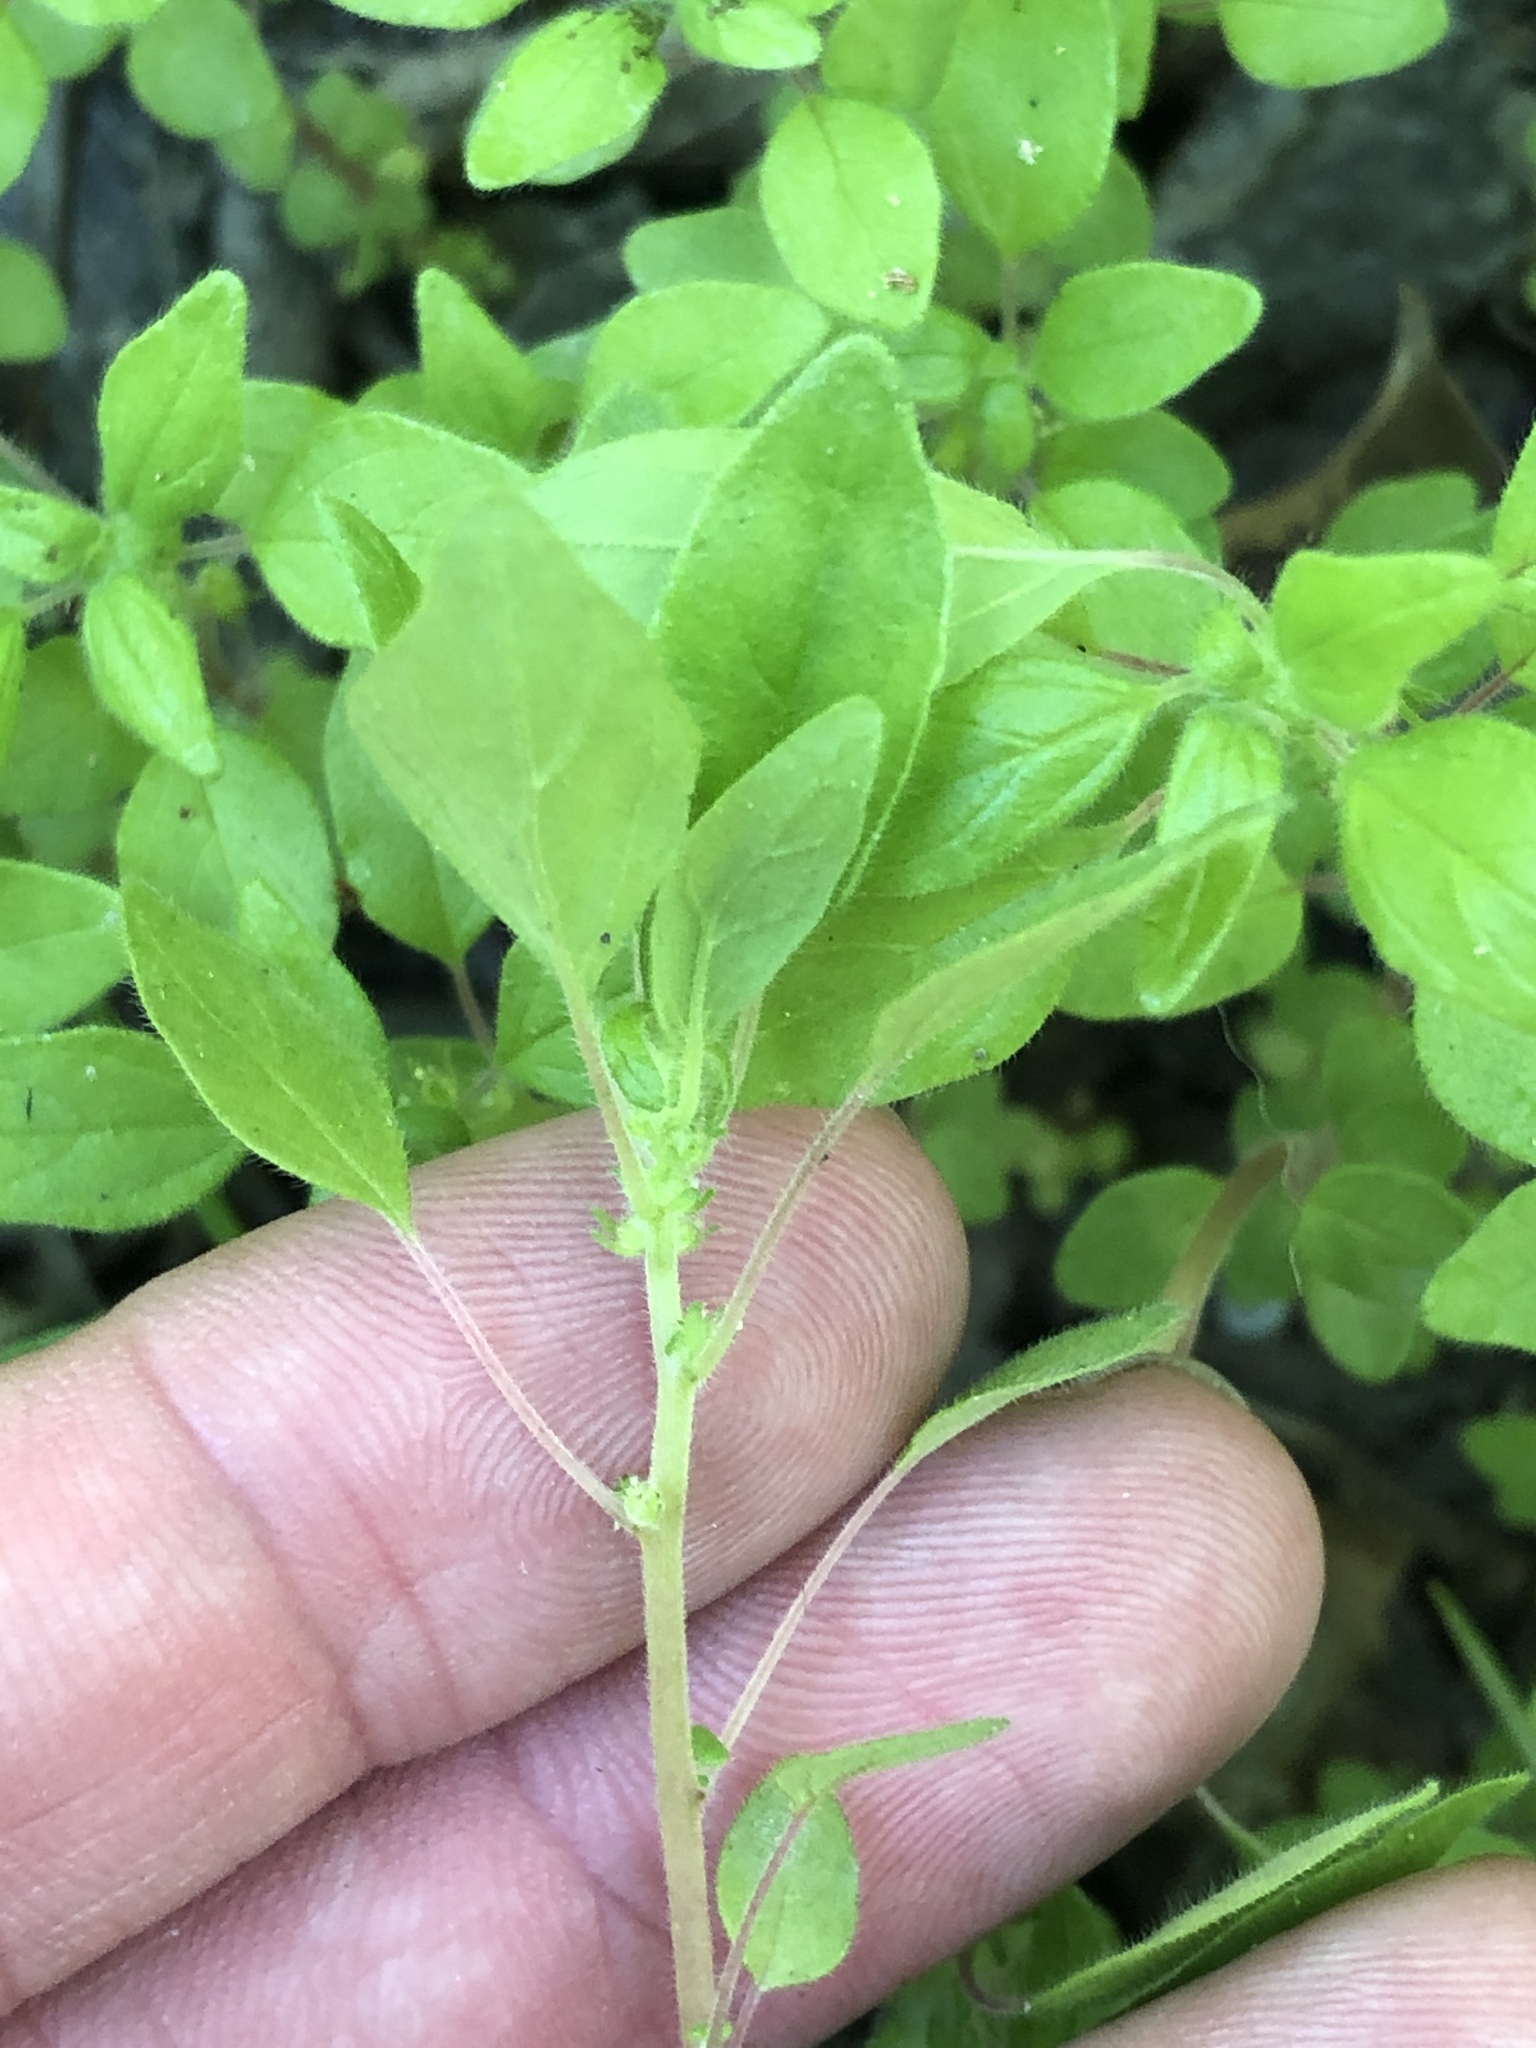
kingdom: Plantae
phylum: Tracheophyta
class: Magnoliopsida
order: Rosales
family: Urticaceae
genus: Parietaria
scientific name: Parietaria pensylvanica
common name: Pennsylvania pellitory
